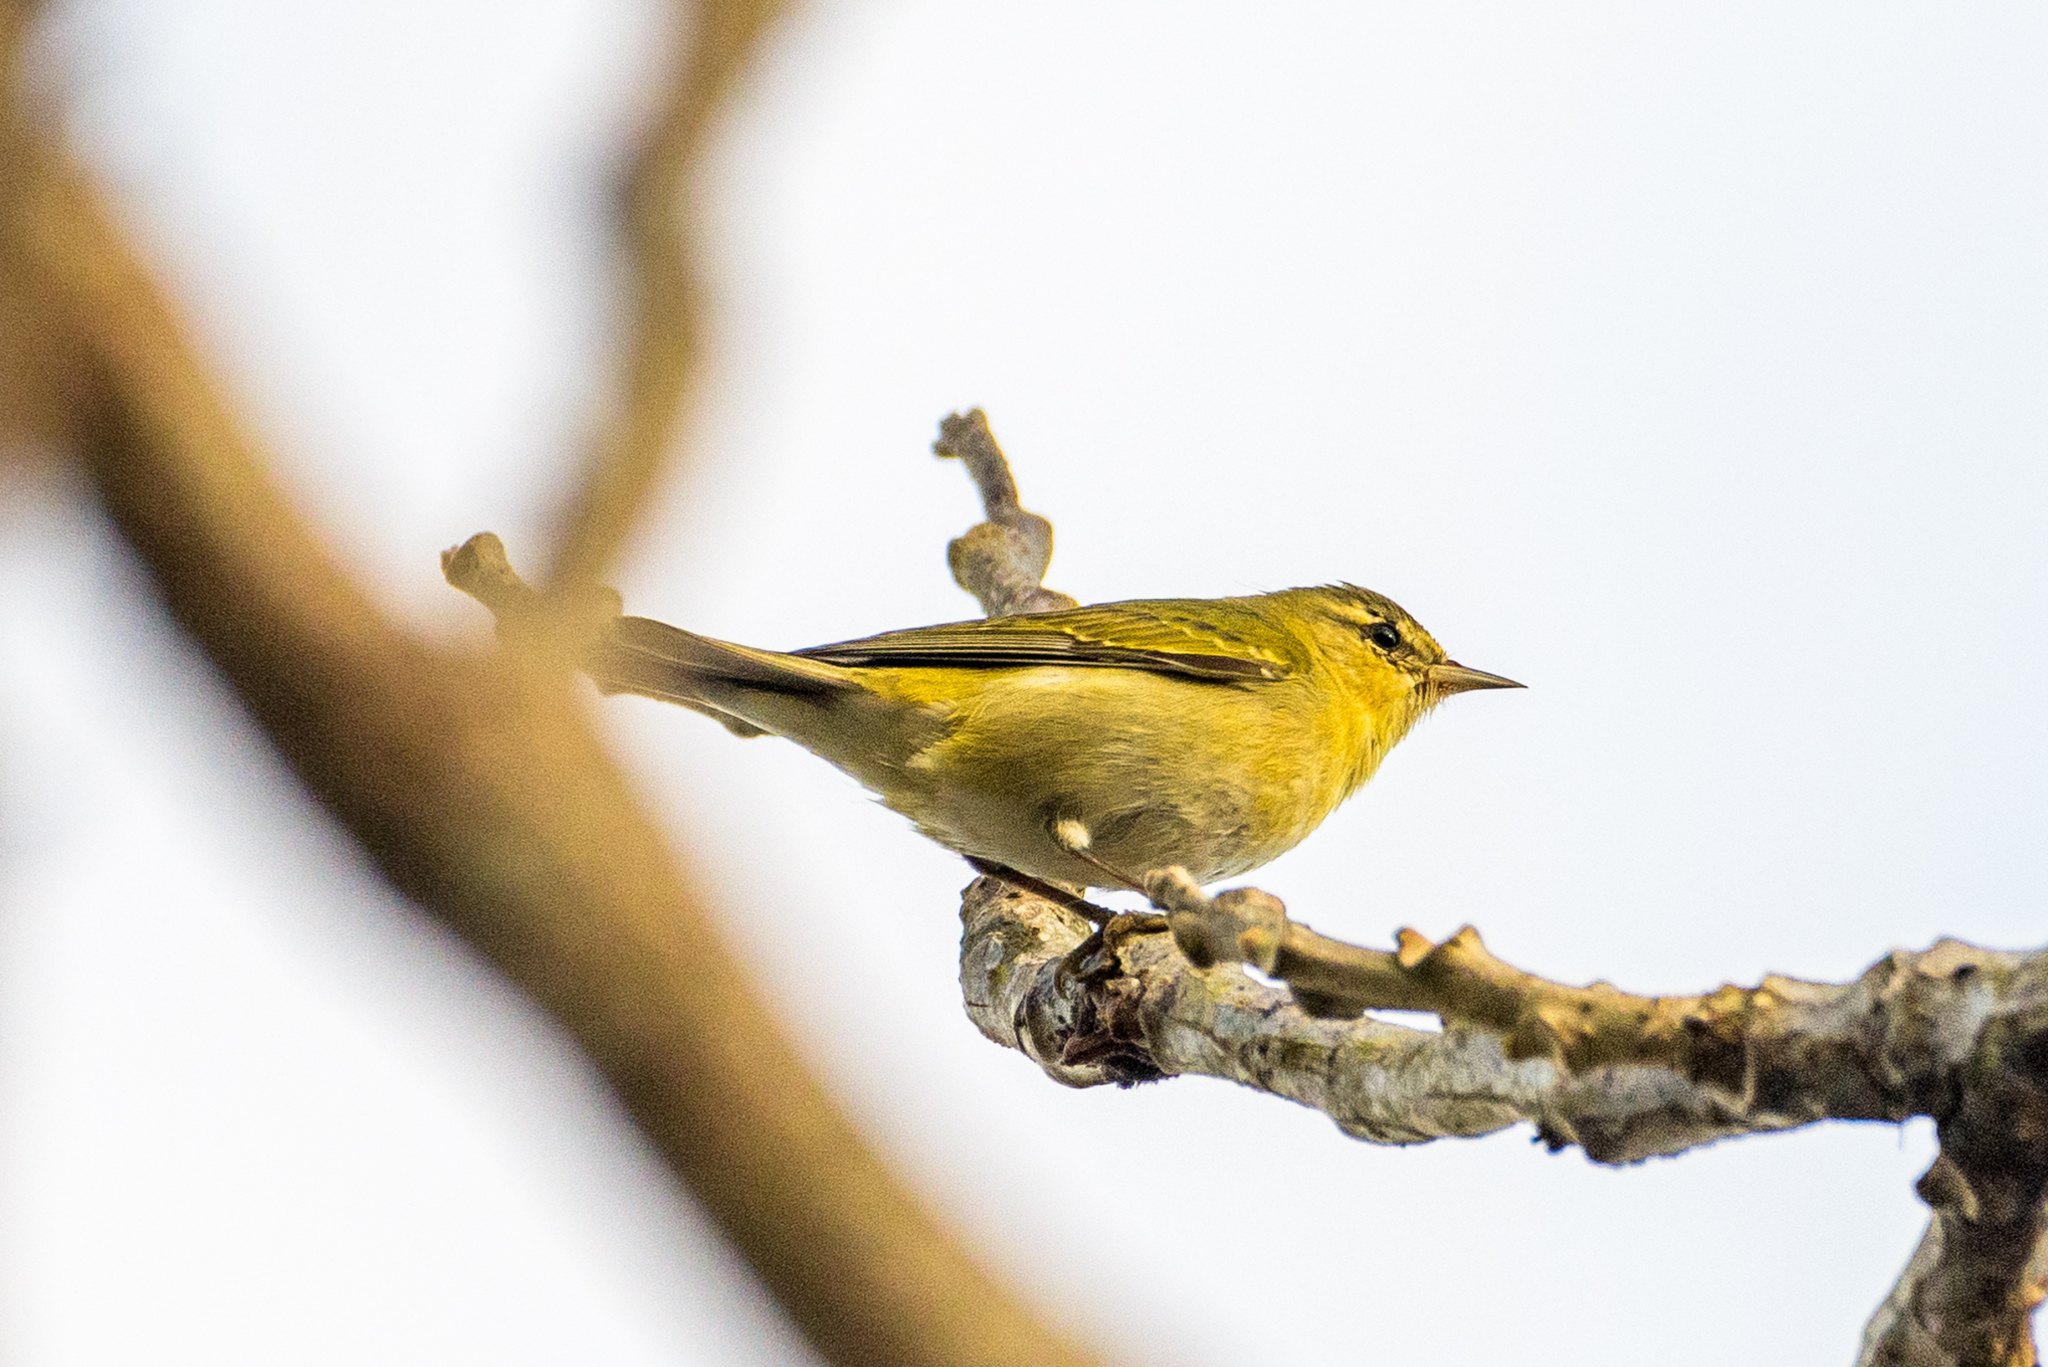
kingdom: Animalia
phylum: Chordata
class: Aves
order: Passeriformes
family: Parulidae
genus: Leiothlypis
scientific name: Leiothlypis peregrina
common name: Tennessee warbler
